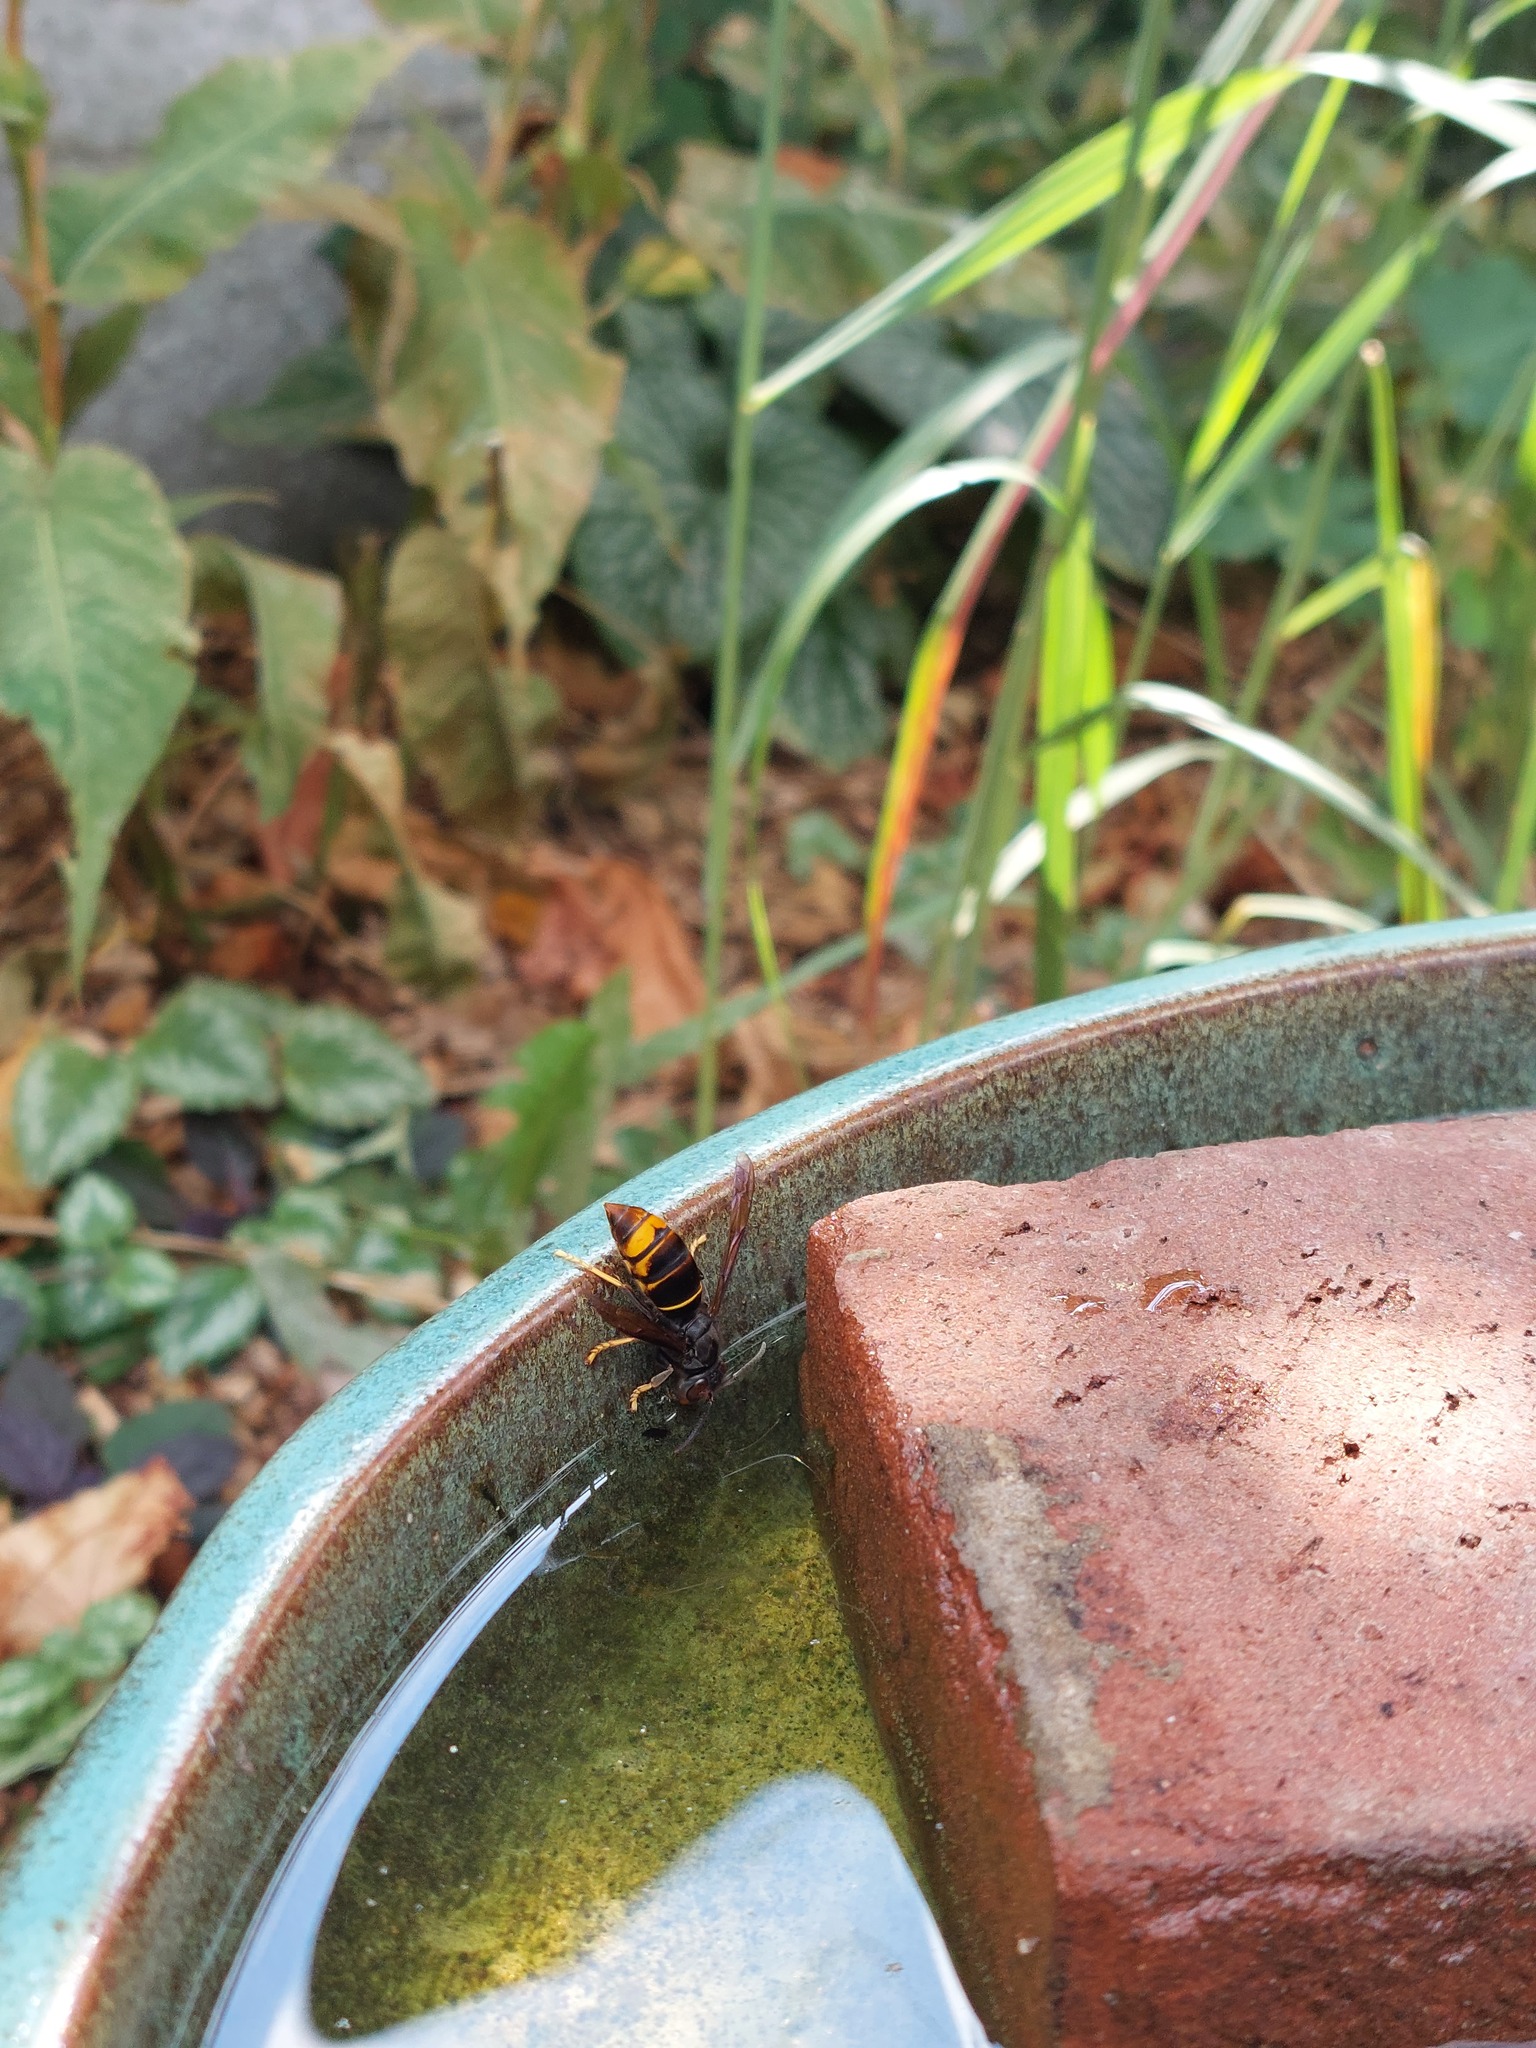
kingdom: Animalia
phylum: Arthropoda
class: Insecta
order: Hymenoptera
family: Vespidae
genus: Vespa
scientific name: Vespa velutina
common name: Asian hornet
